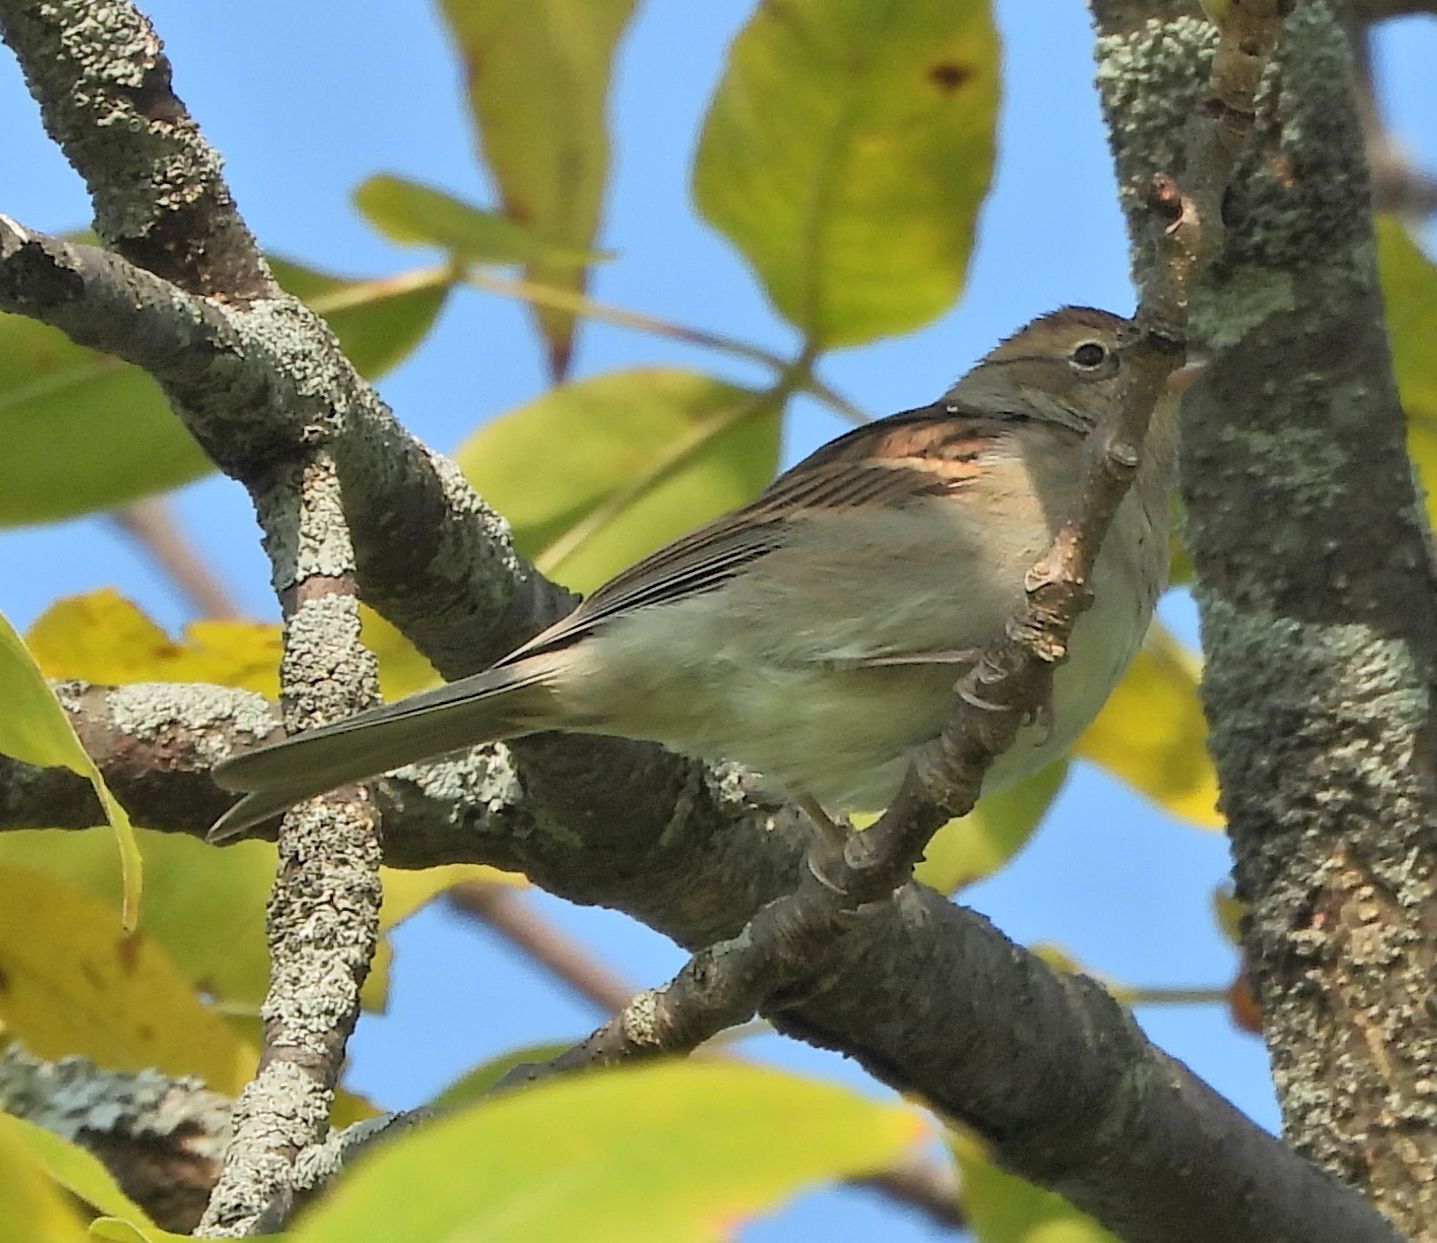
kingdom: Animalia
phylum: Chordata
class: Aves
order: Passeriformes
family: Passerellidae
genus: Spizella
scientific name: Spizella pusilla
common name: Field sparrow
